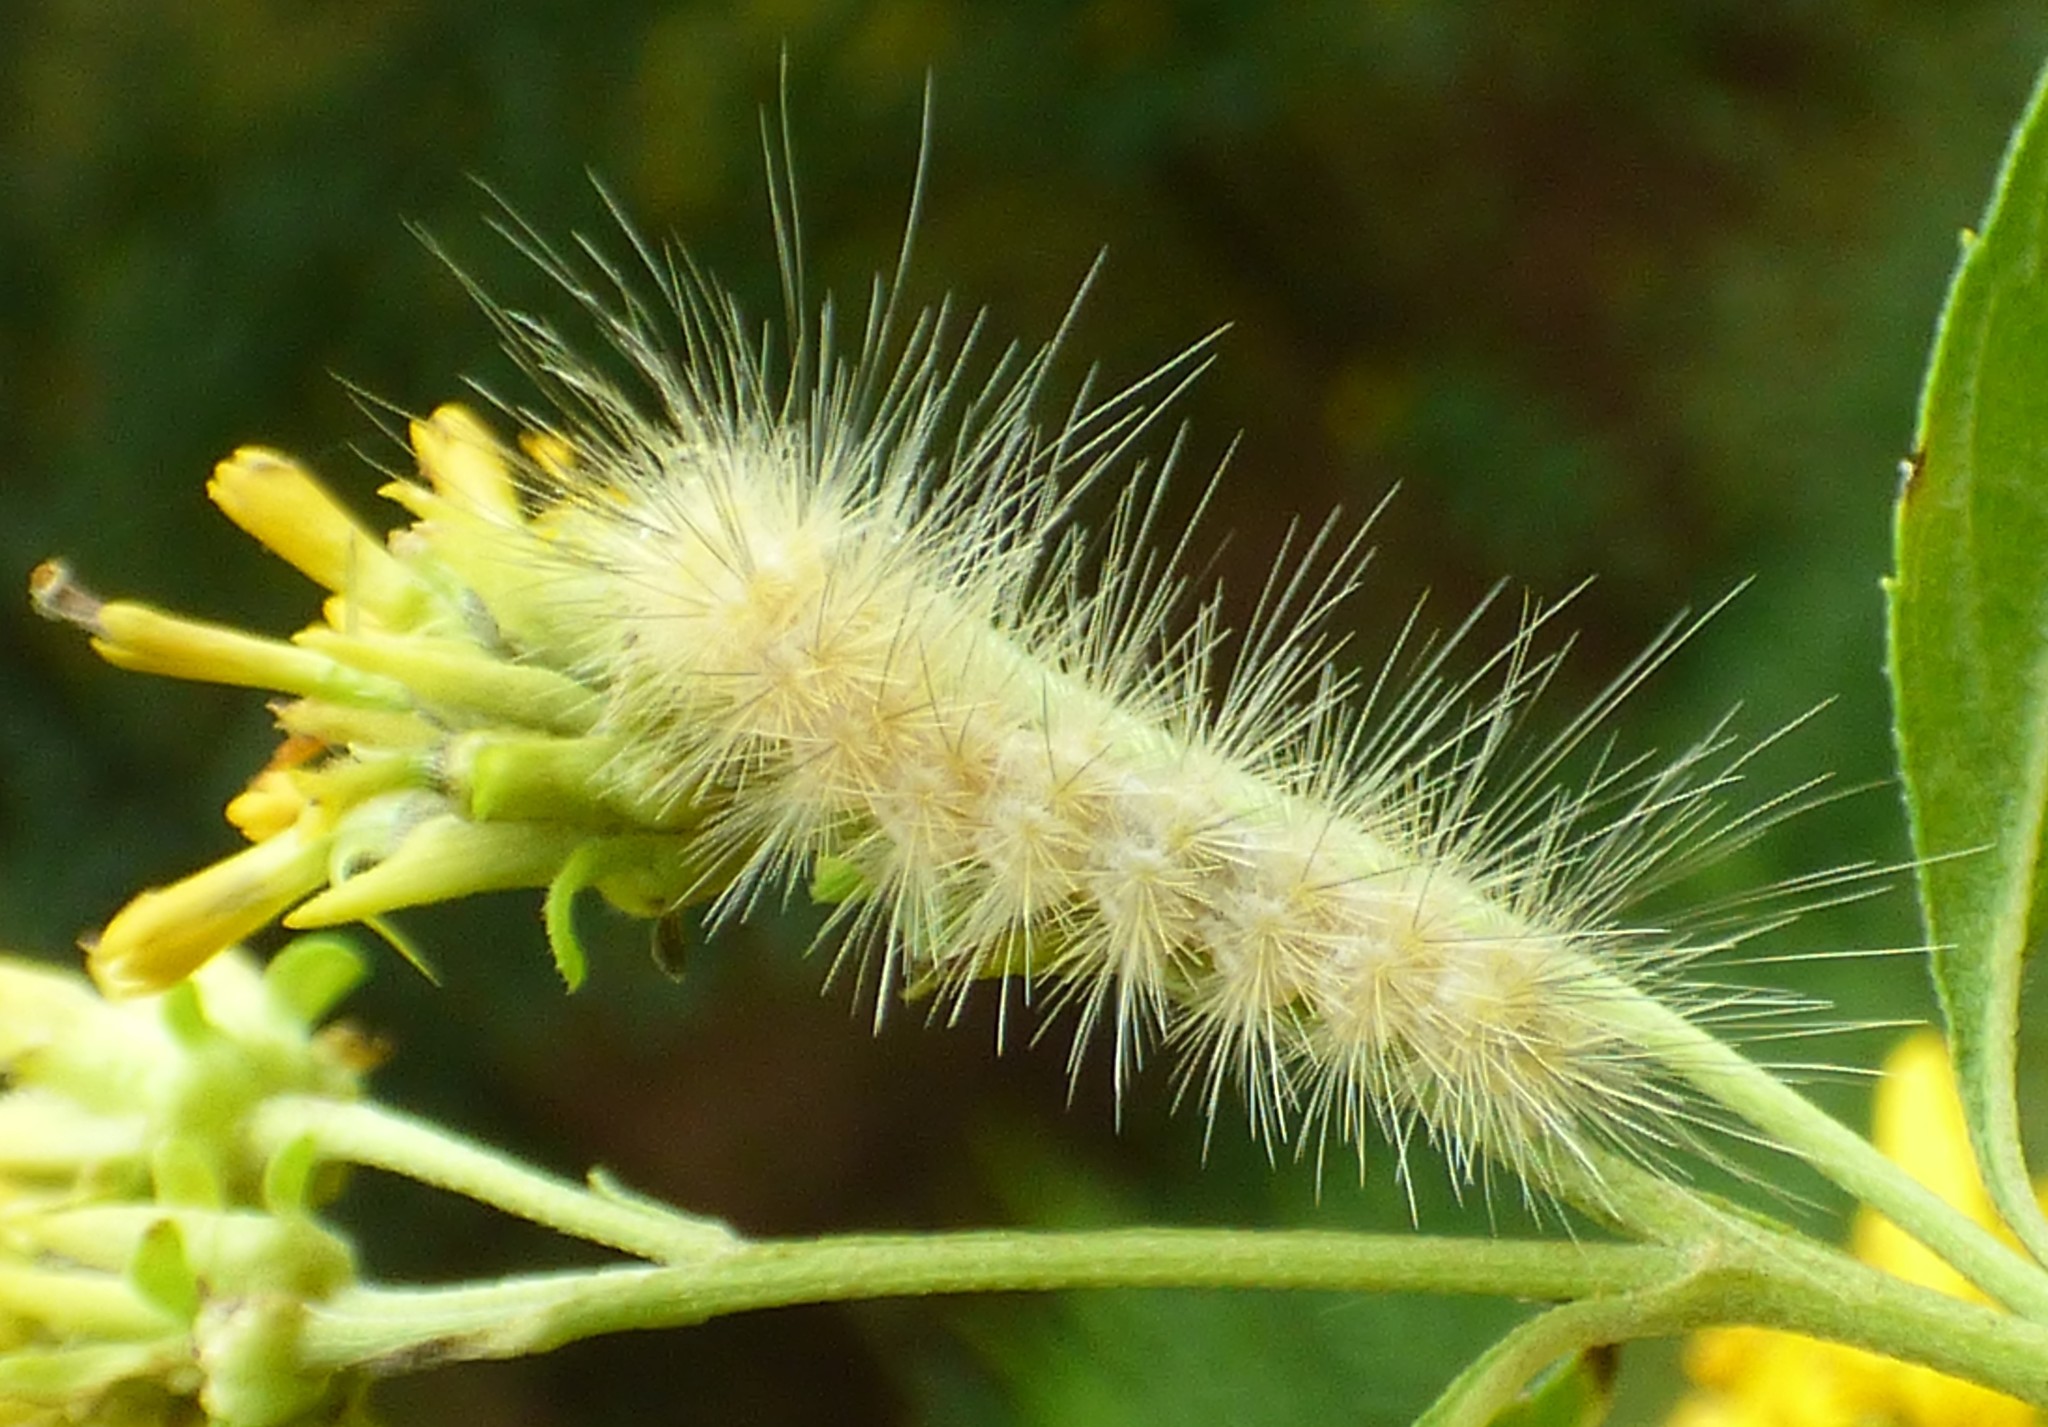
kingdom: Animalia
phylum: Arthropoda
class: Insecta
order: Lepidoptera
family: Erebidae
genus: Spilosoma
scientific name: Spilosoma virginica
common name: Virginia tiger moth
